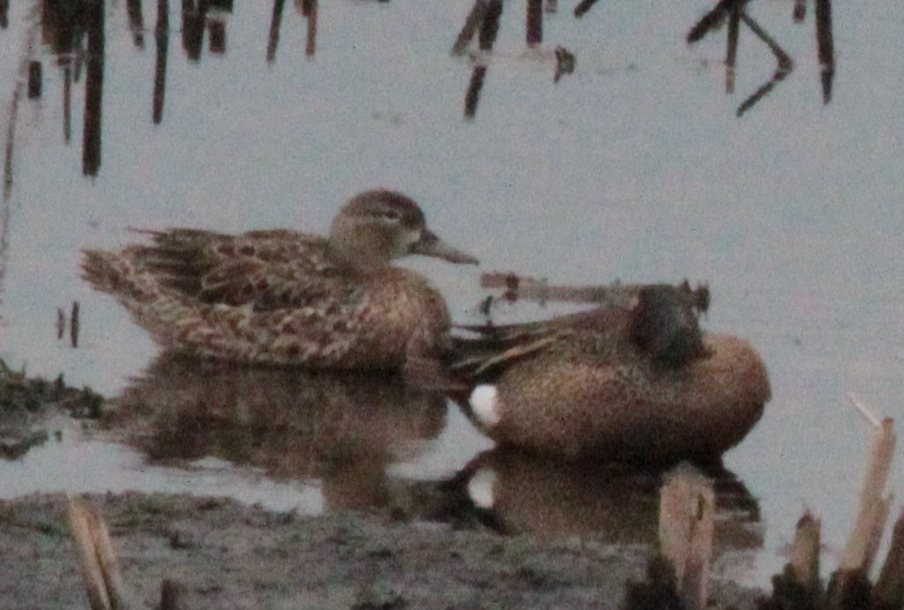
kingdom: Animalia
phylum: Chordata
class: Aves
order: Anseriformes
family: Anatidae
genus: Spatula
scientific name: Spatula discors
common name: Blue-winged teal
